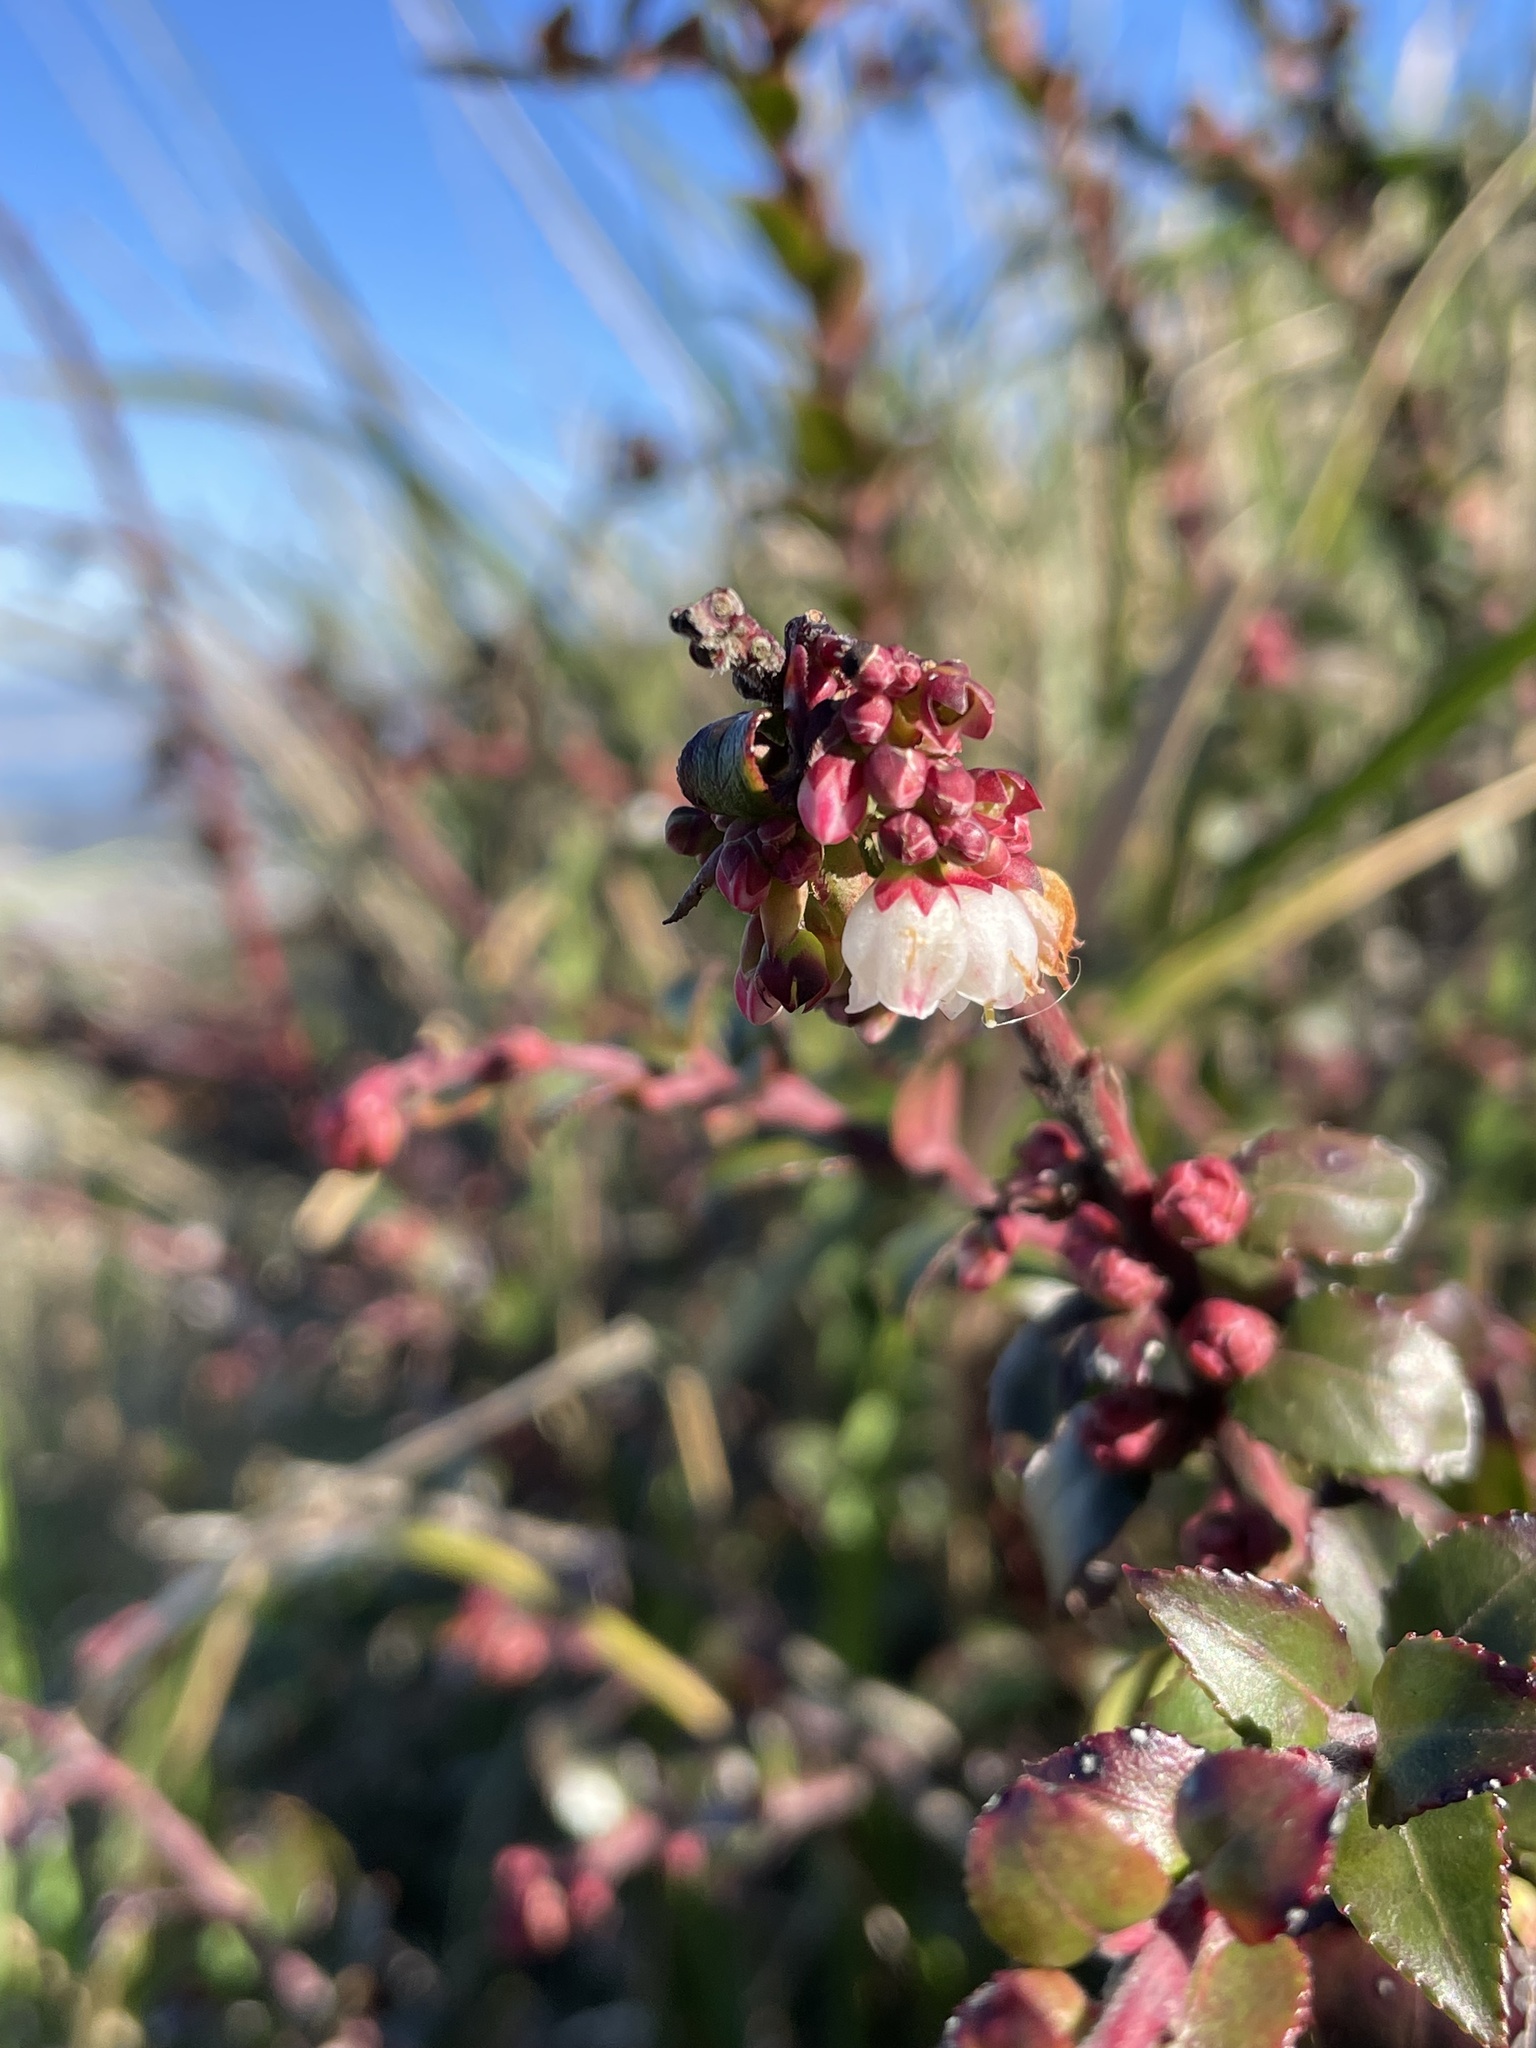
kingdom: Plantae
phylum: Tracheophyta
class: Magnoliopsida
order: Ericales
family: Ericaceae
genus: Vaccinium
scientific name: Vaccinium ovatum
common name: California-huckleberry
